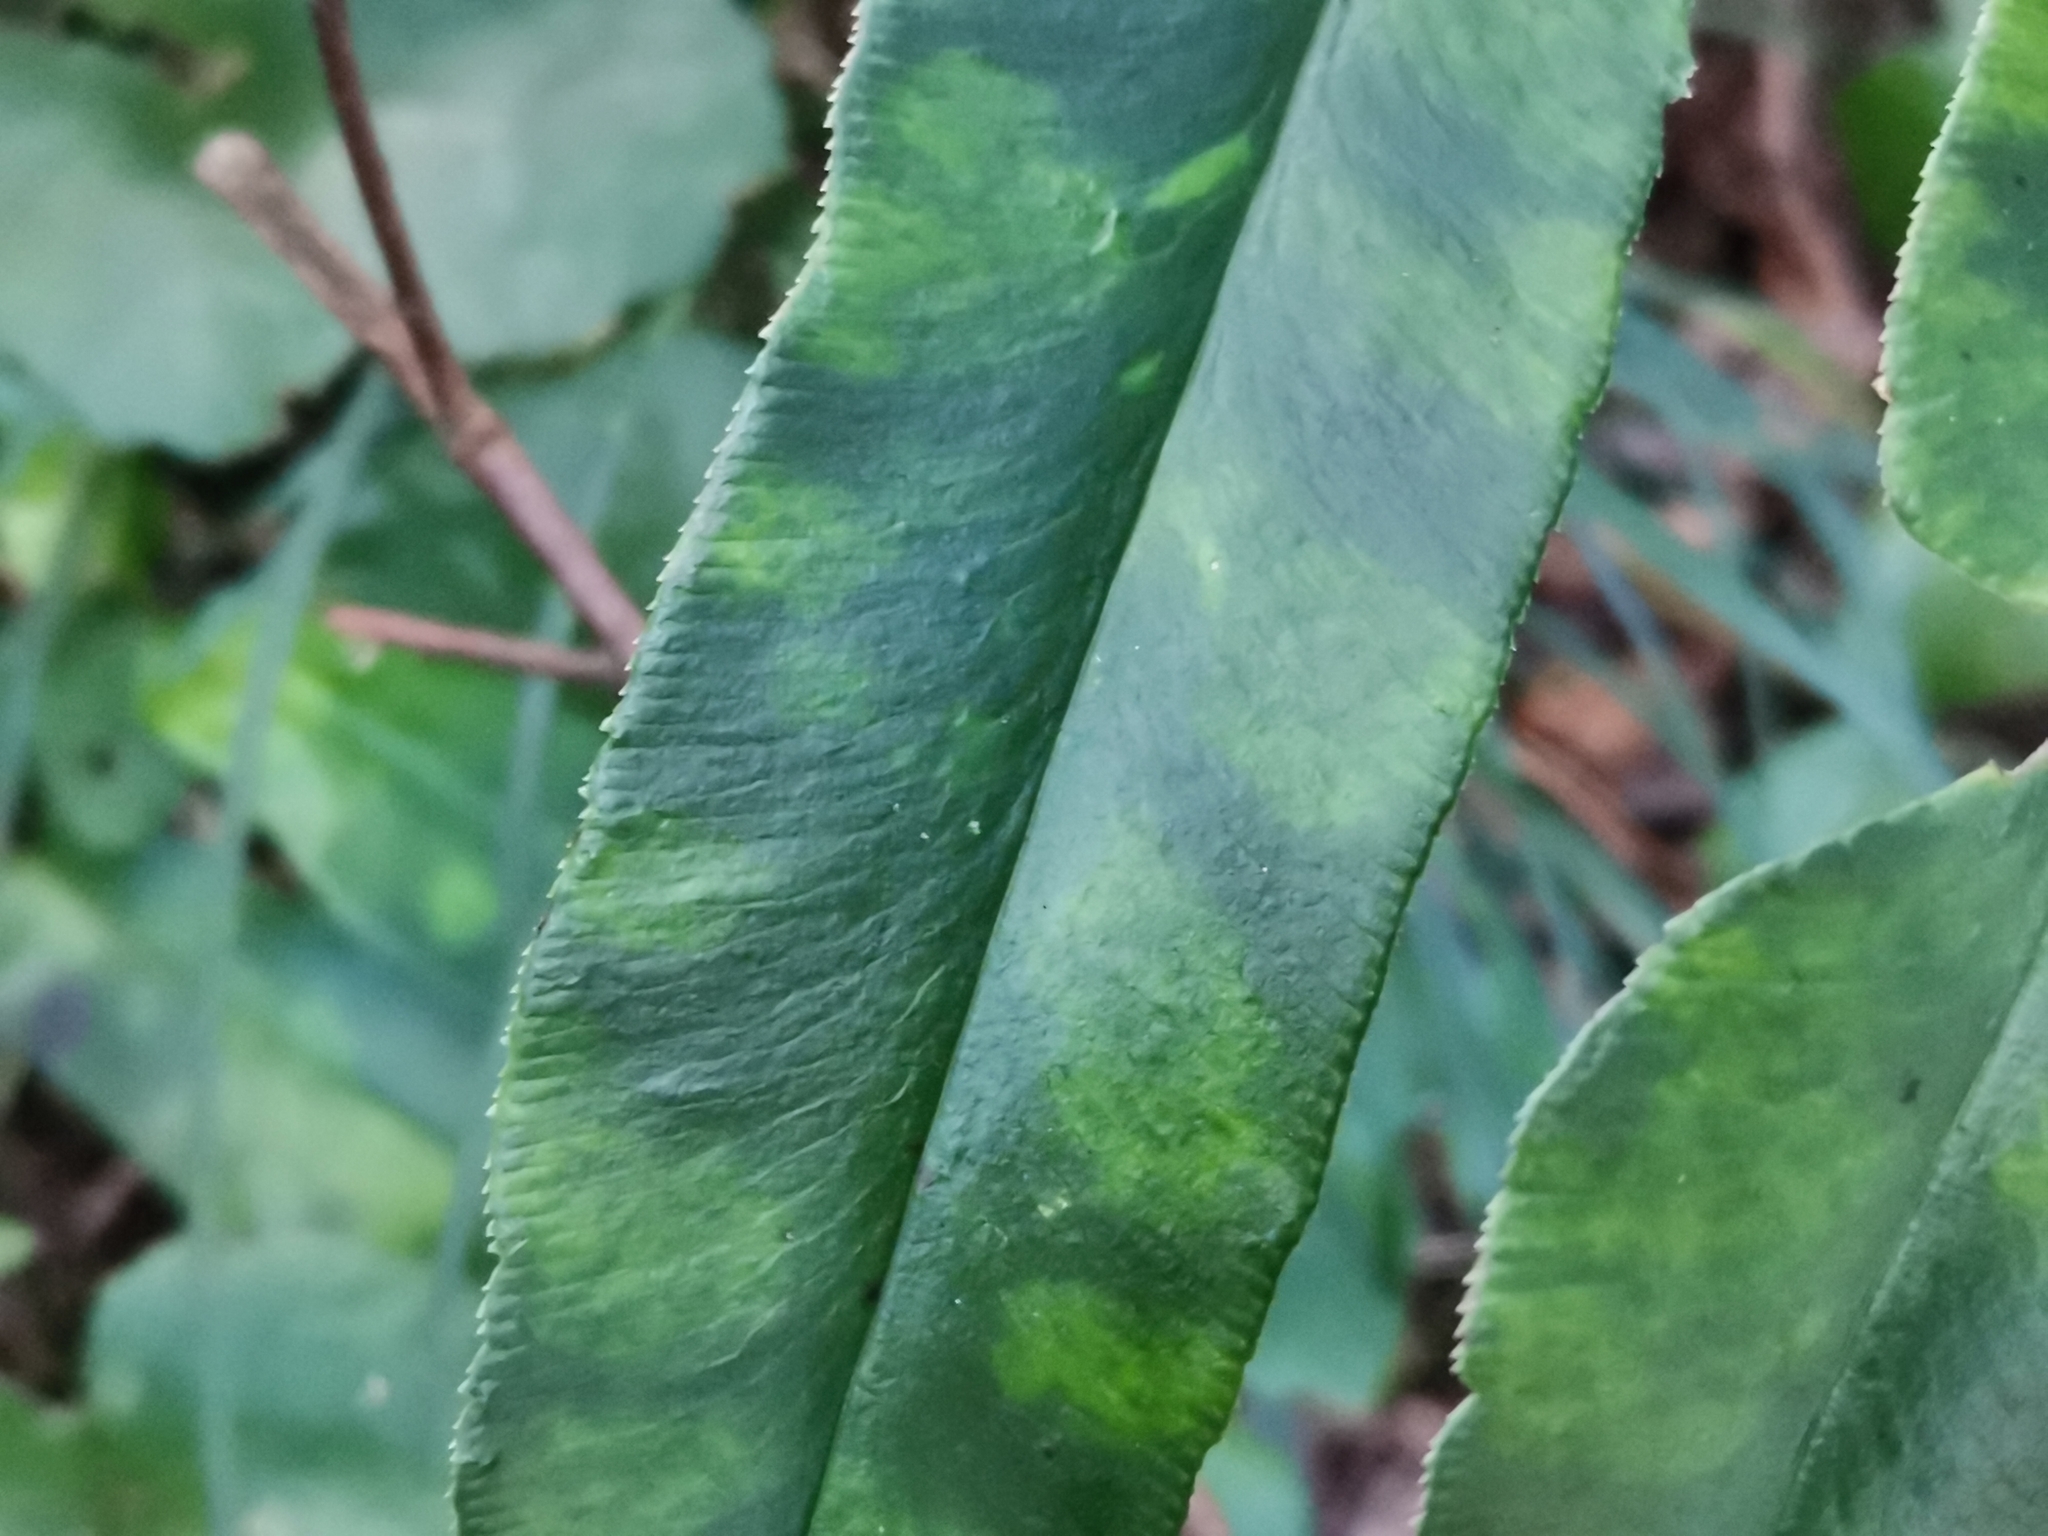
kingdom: Plantae
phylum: Tracheophyta
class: Polypodiopsida
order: Polypodiales
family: Pteridaceae
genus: Coniogramme
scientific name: Coniogramme japonica
